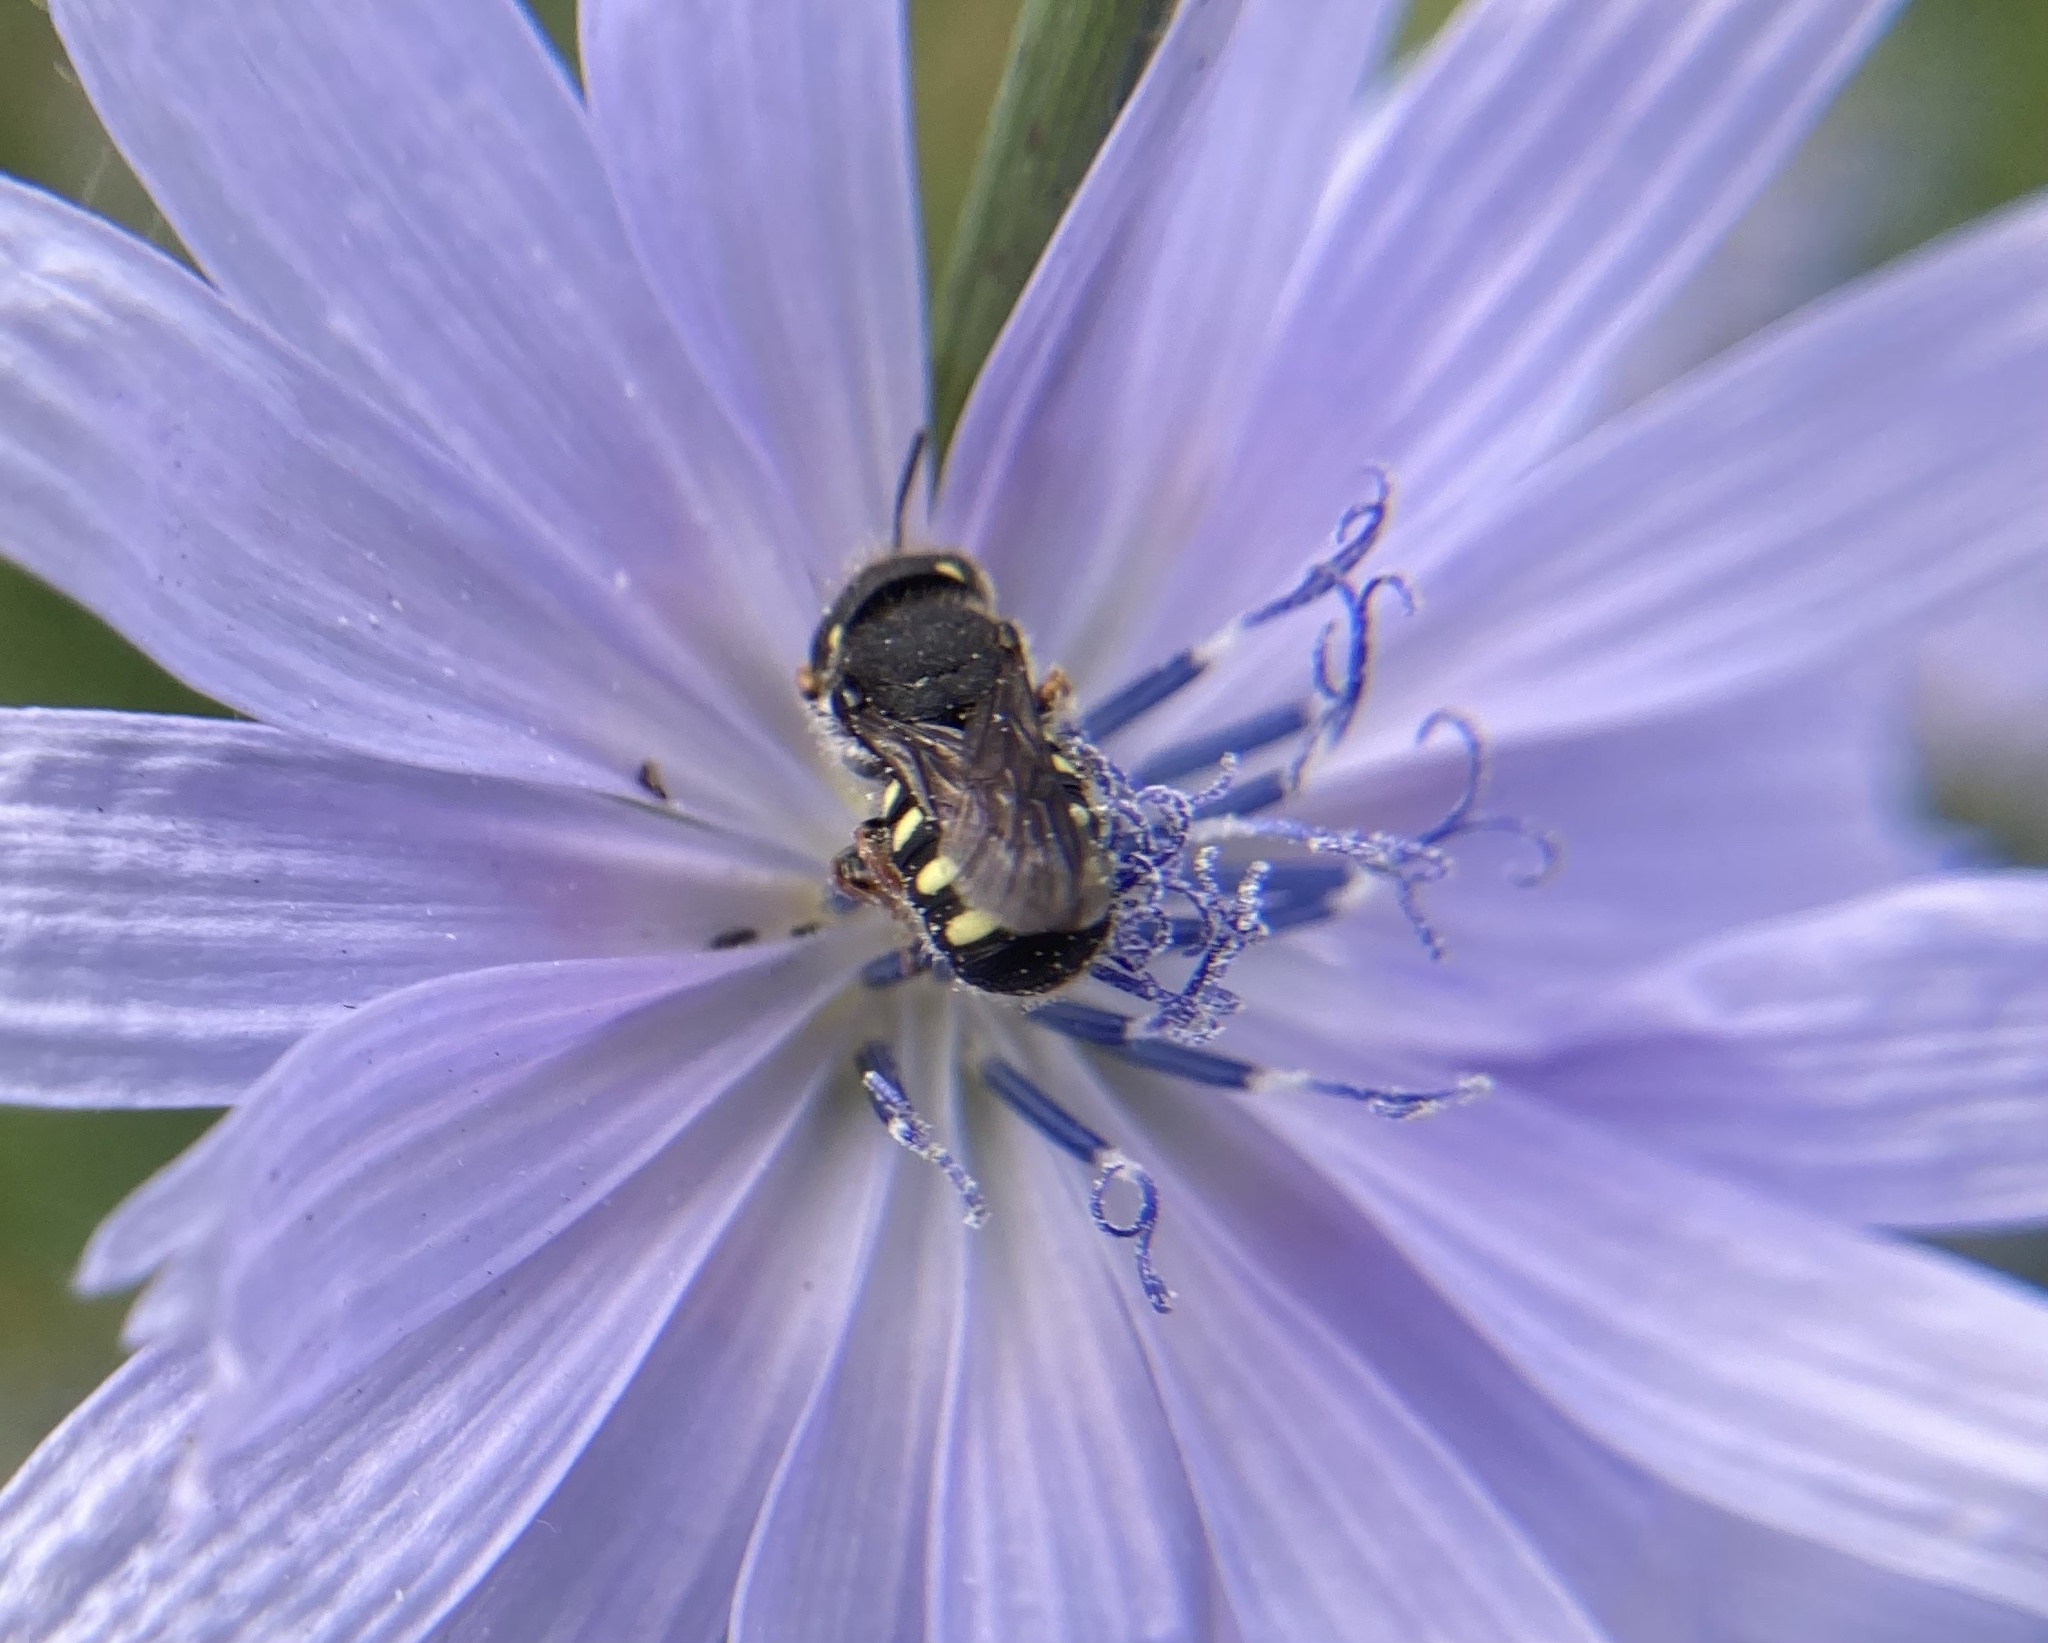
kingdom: Animalia
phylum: Arthropoda
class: Insecta
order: Hymenoptera
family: Megachilidae
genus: Pseudoanthidium
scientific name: Pseudoanthidium nanum
